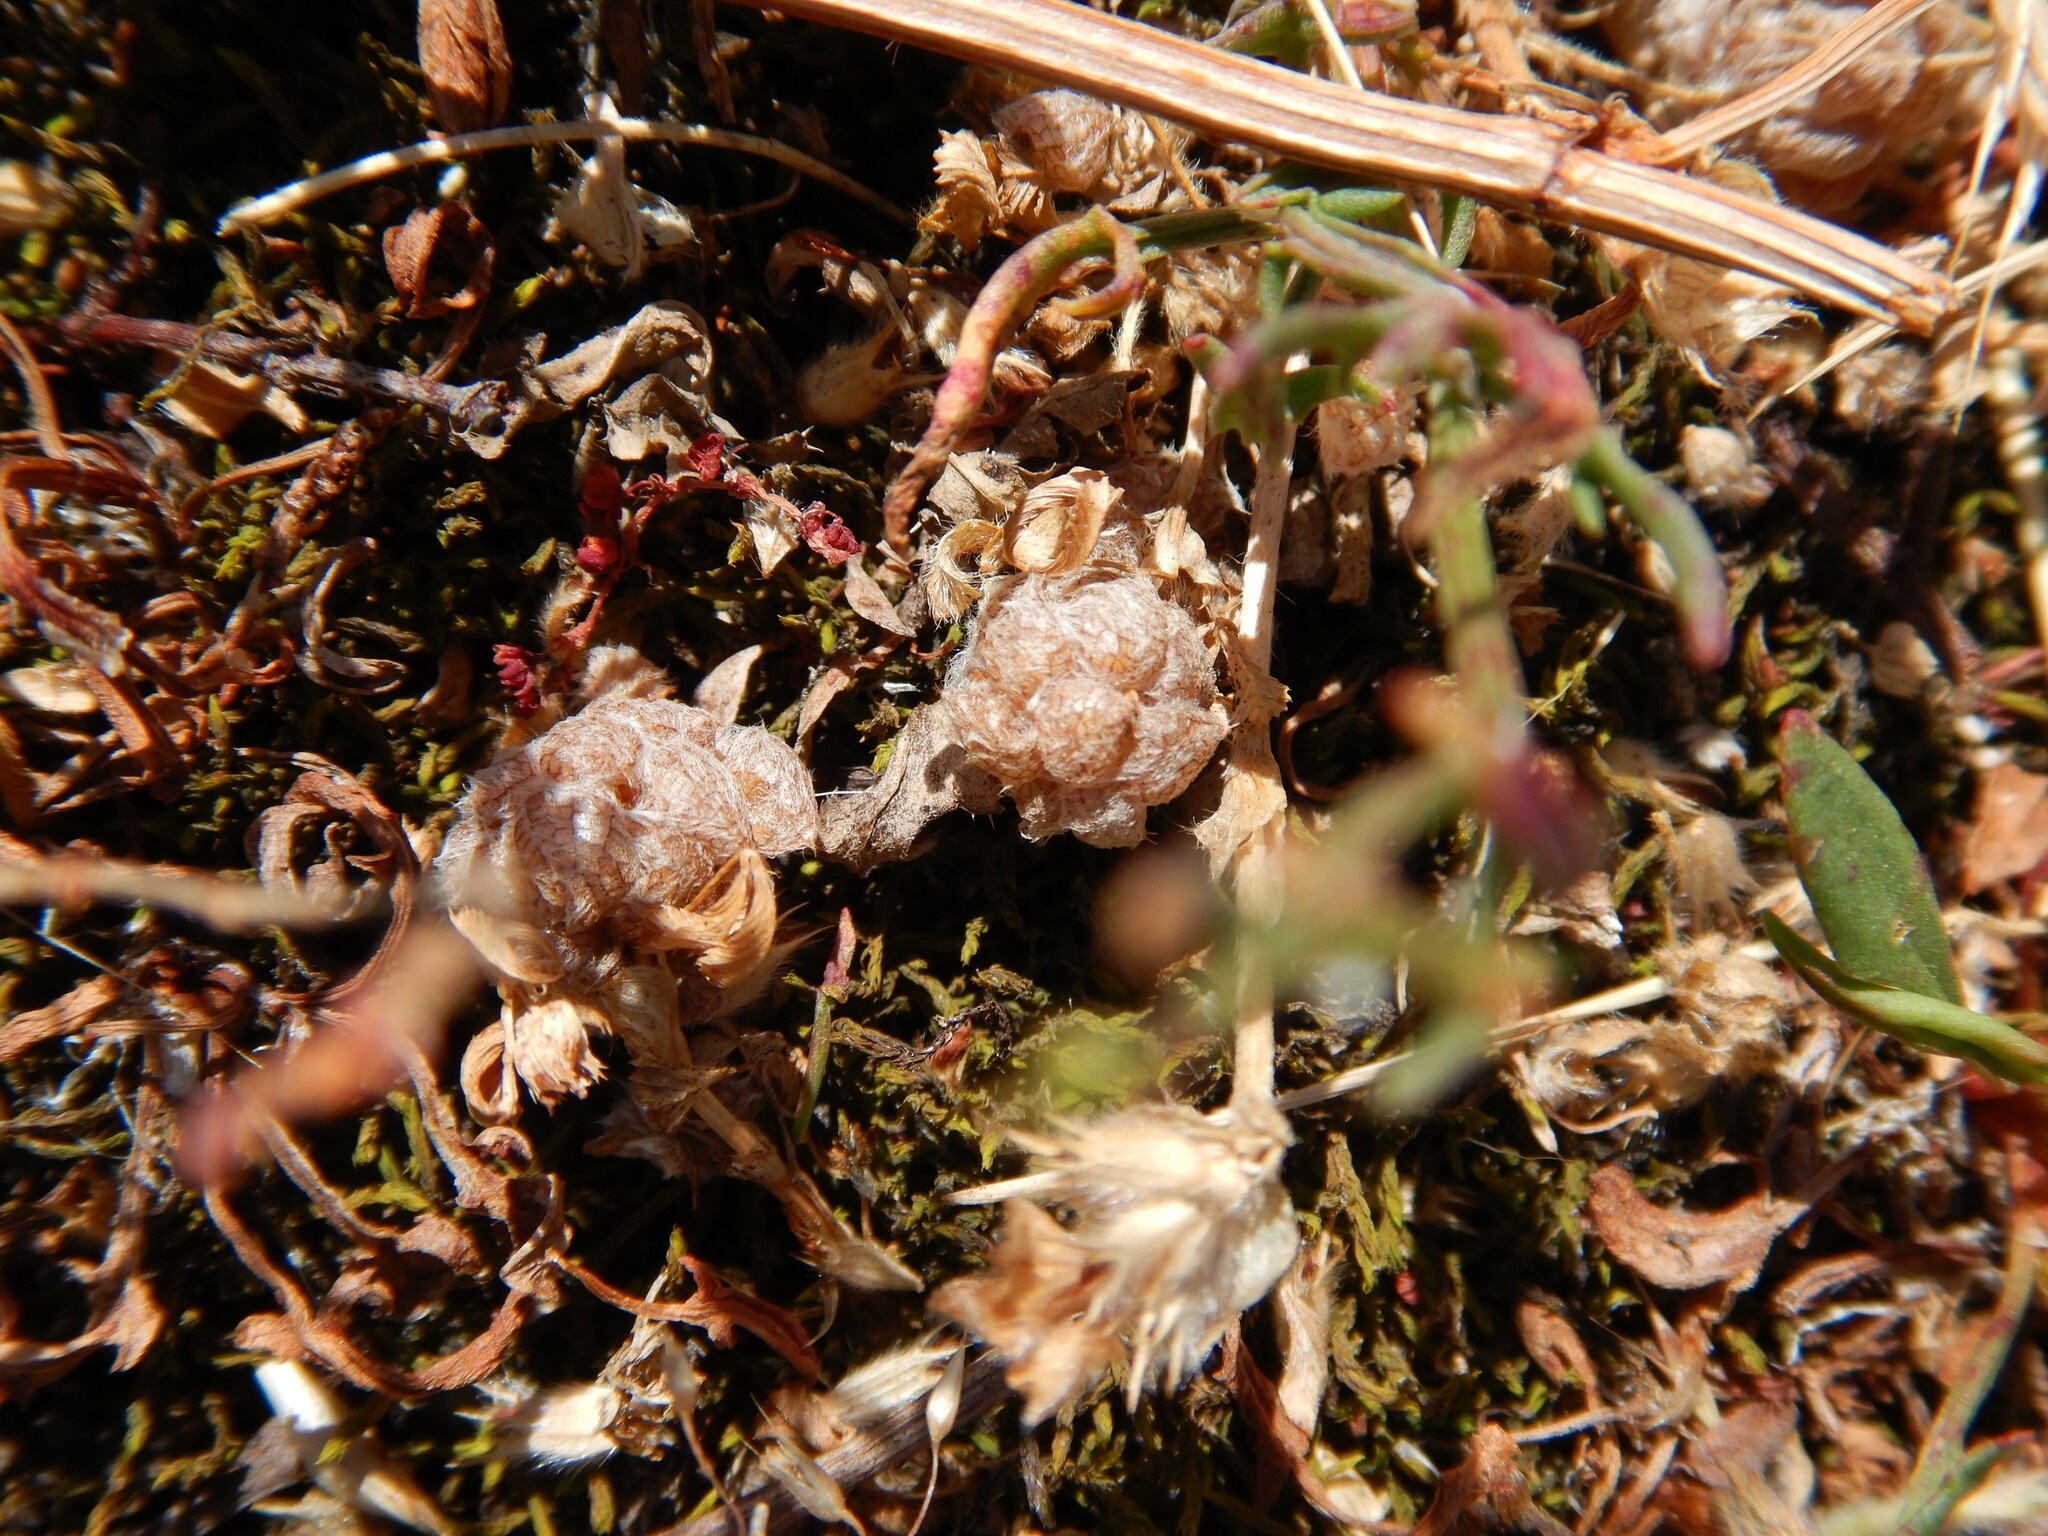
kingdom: Plantae
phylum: Tracheophyta
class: Magnoliopsida
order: Fabales
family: Fabaceae
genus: Trifolium
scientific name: Trifolium tomentosum
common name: Woolly clover
